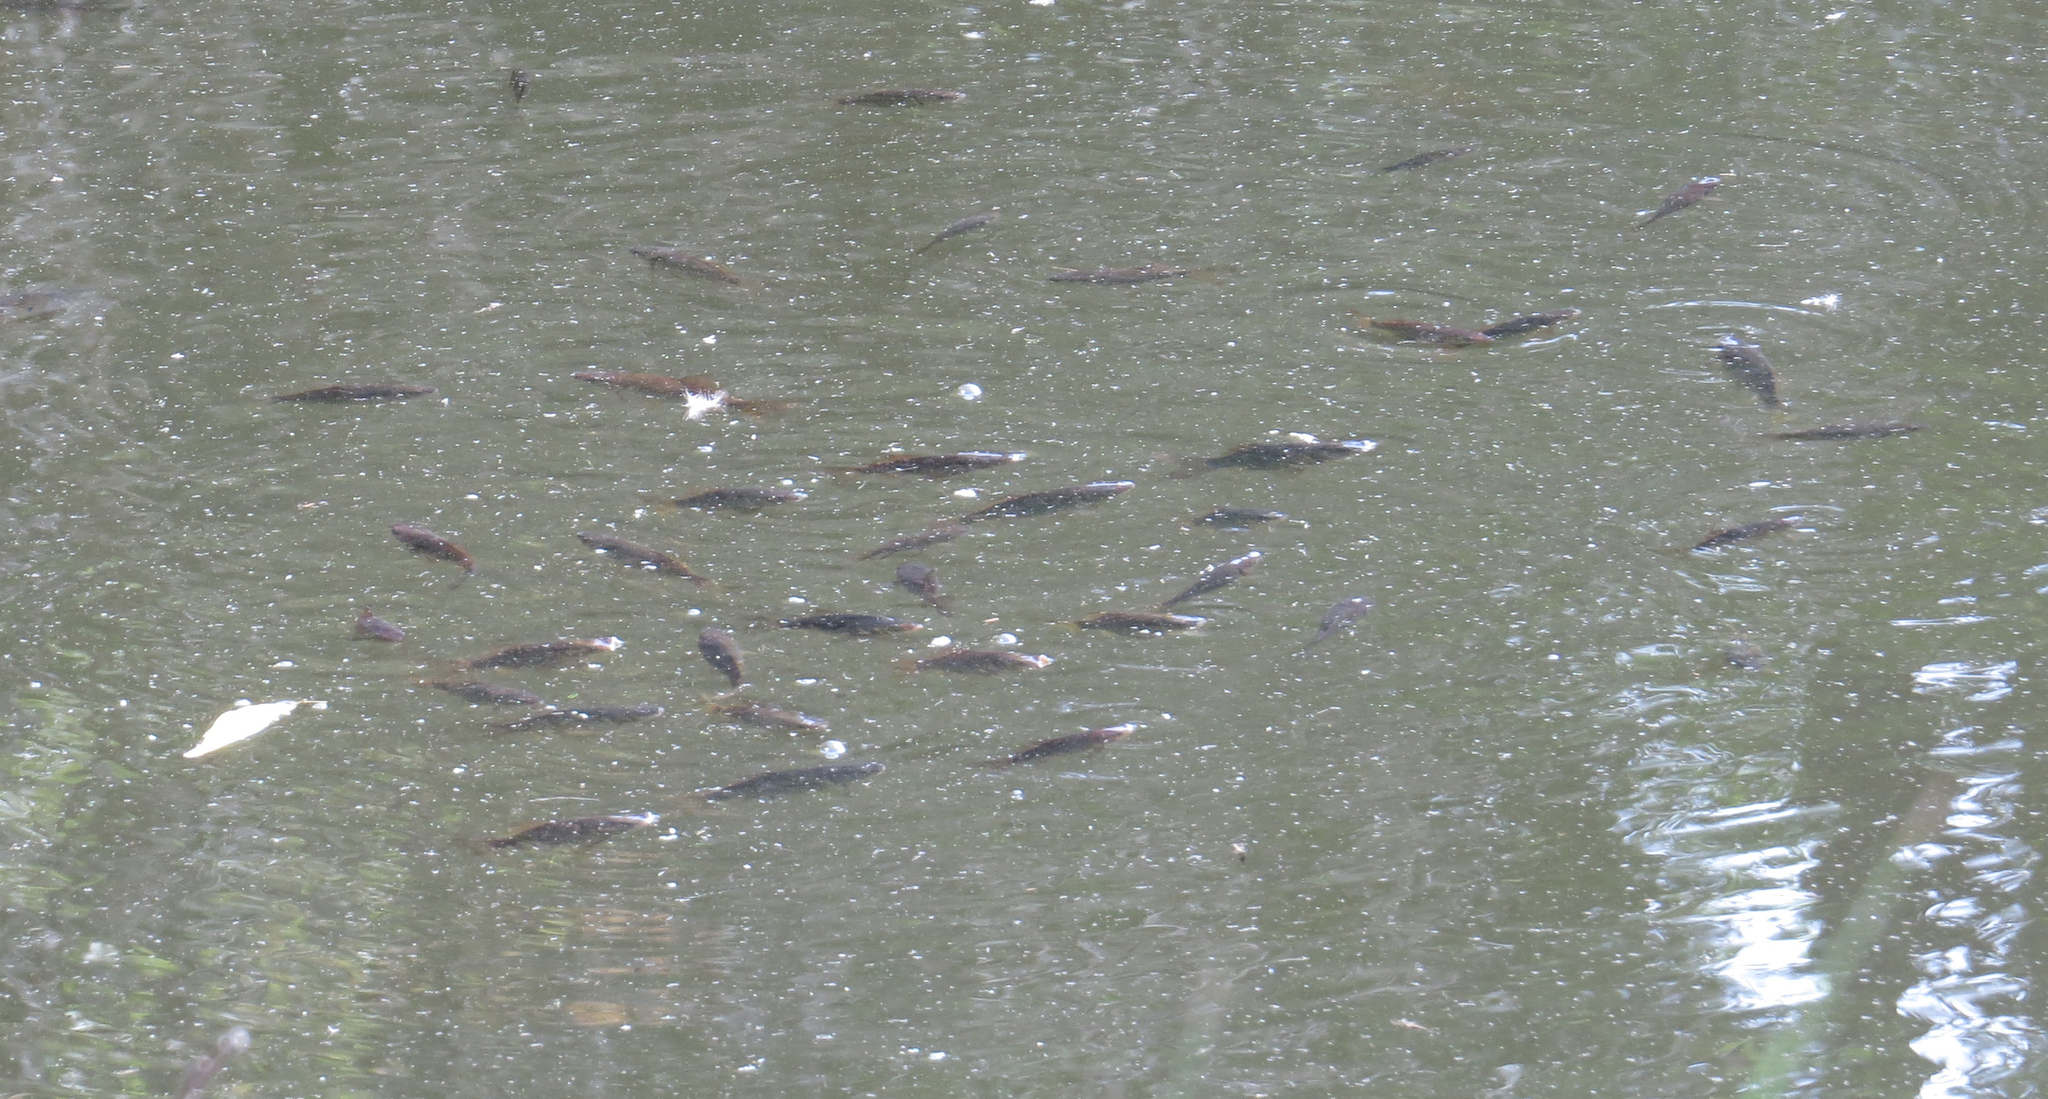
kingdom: Animalia
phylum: Chordata
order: Cypriniformes
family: Cyprinidae
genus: Carassius
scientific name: Carassius auratus
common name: Goldfish
